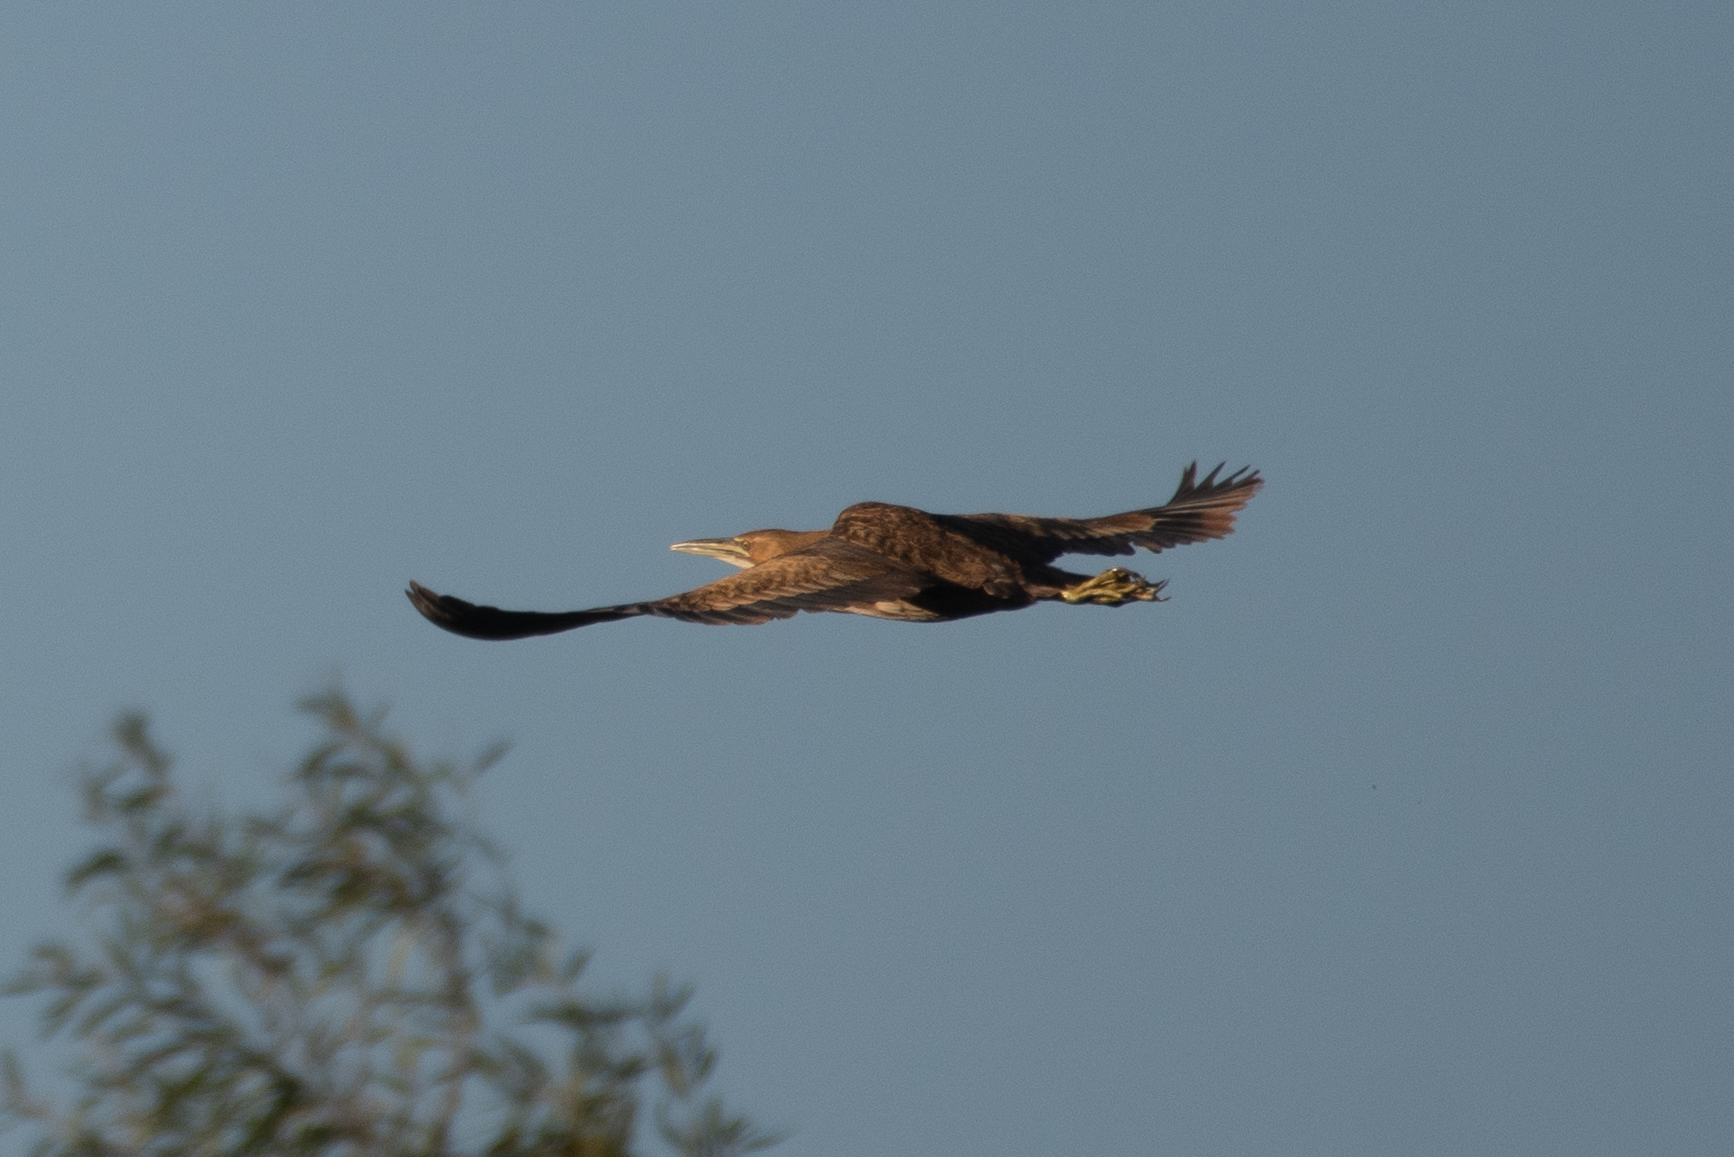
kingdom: Animalia
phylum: Chordata
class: Aves
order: Pelecaniformes
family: Ardeidae
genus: Botaurus
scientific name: Botaurus lentiginosus
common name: American bittern
